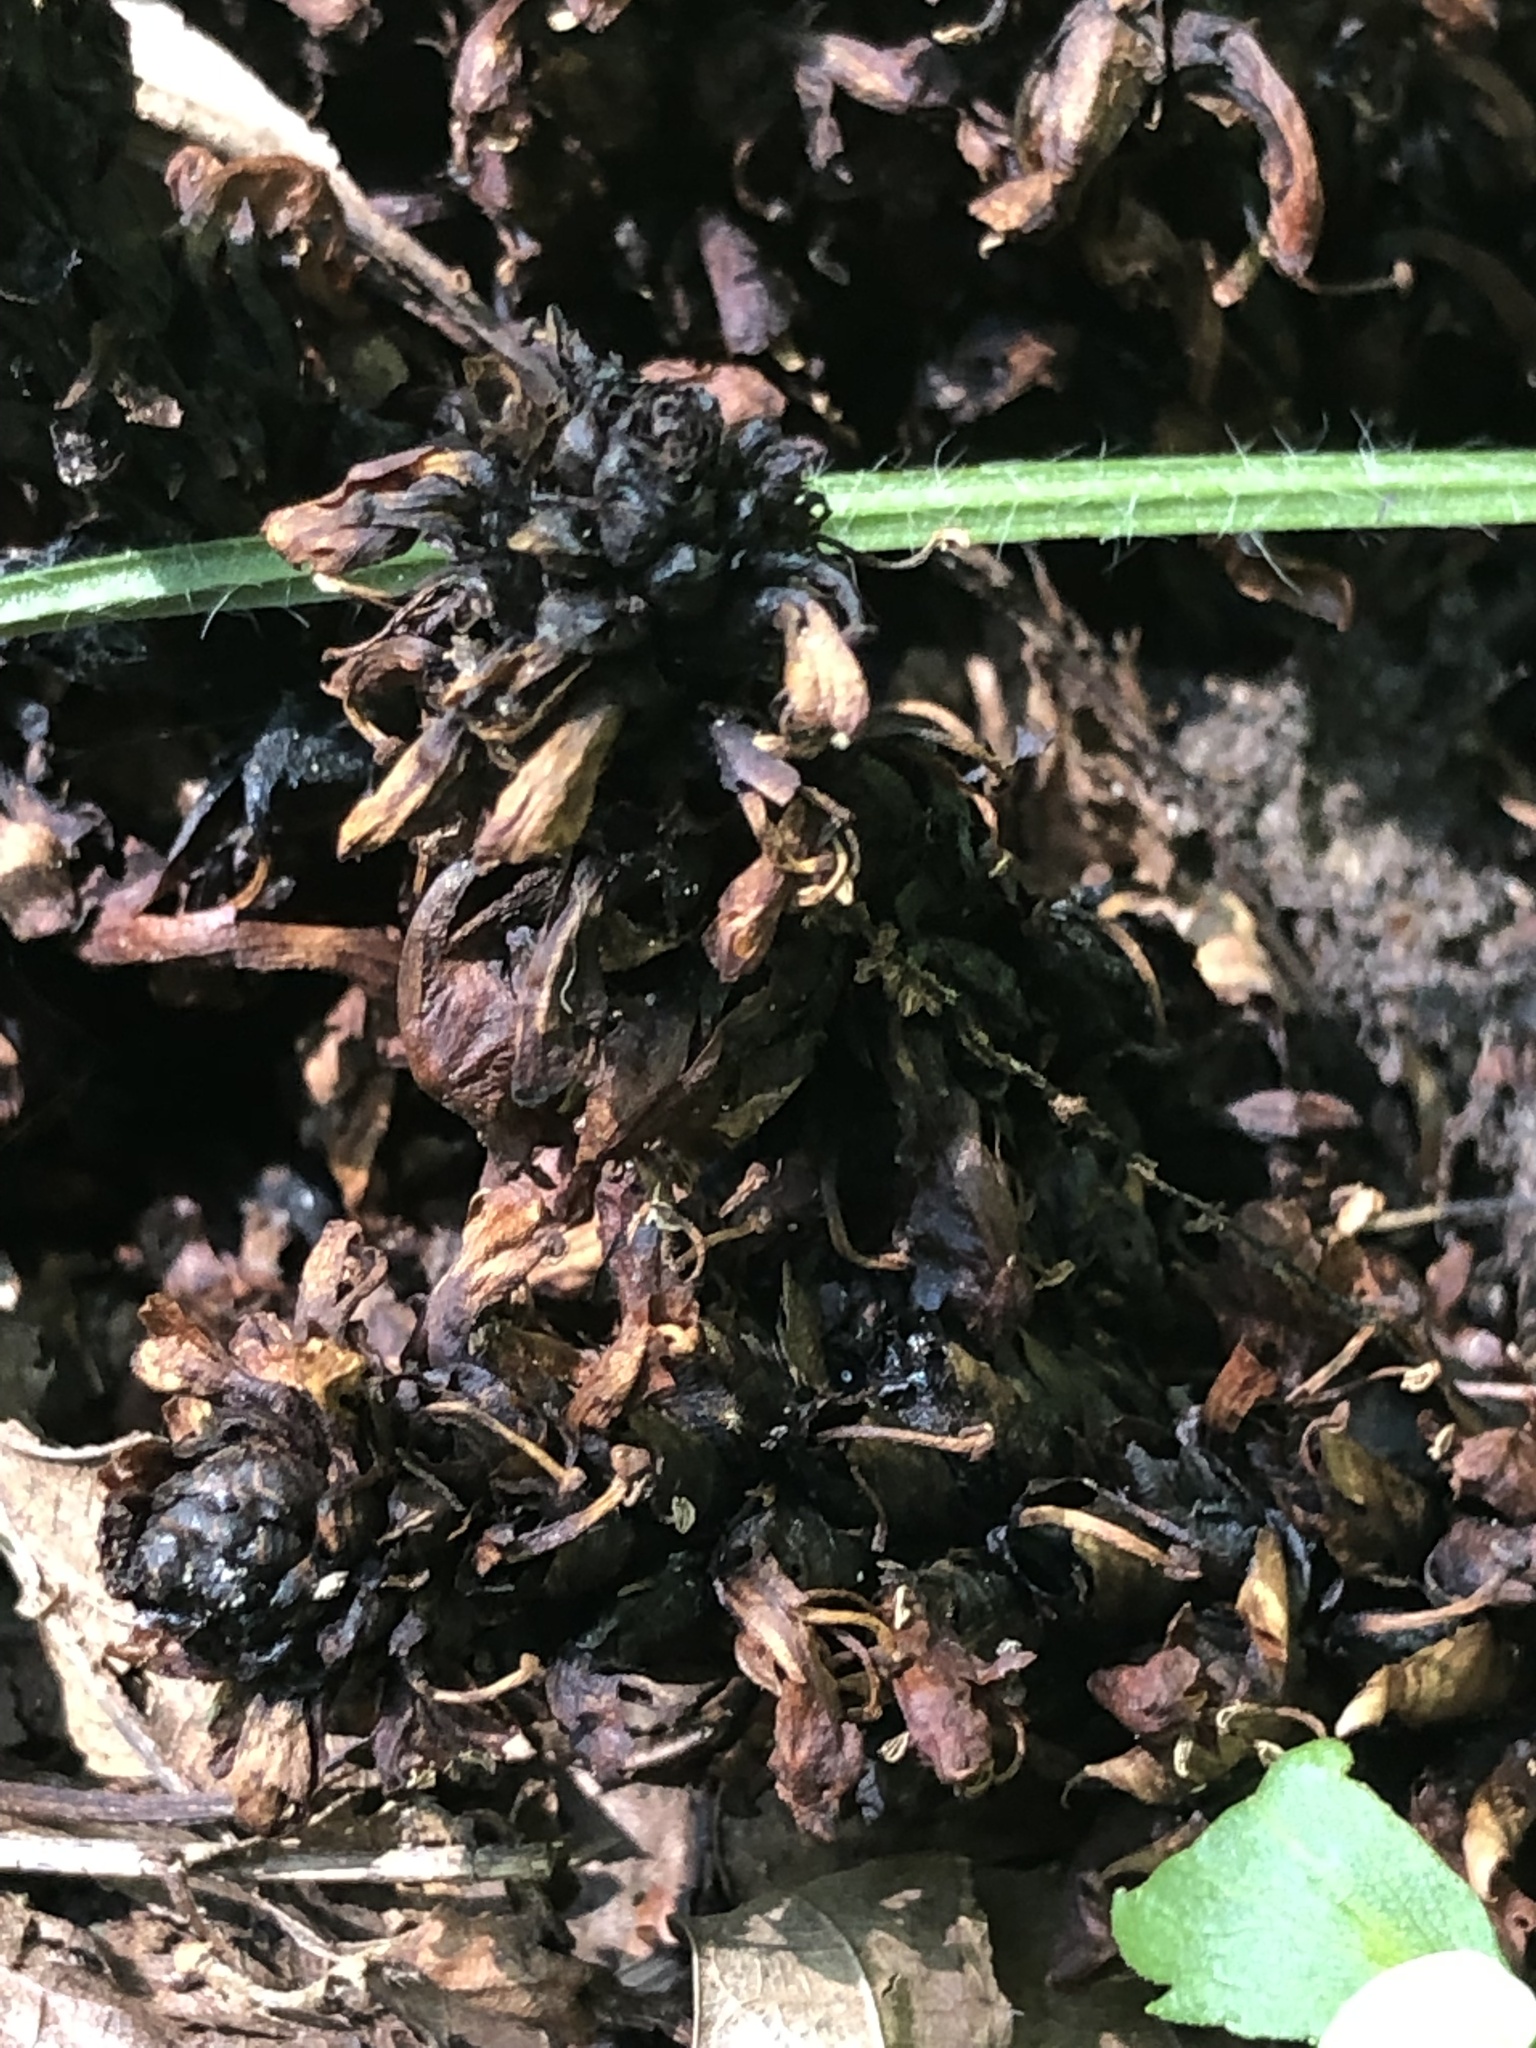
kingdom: Plantae
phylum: Tracheophyta
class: Magnoliopsida
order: Lamiales
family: Orobanchaceae
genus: Conopholis
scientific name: Conopholis americana
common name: American cancer-root
